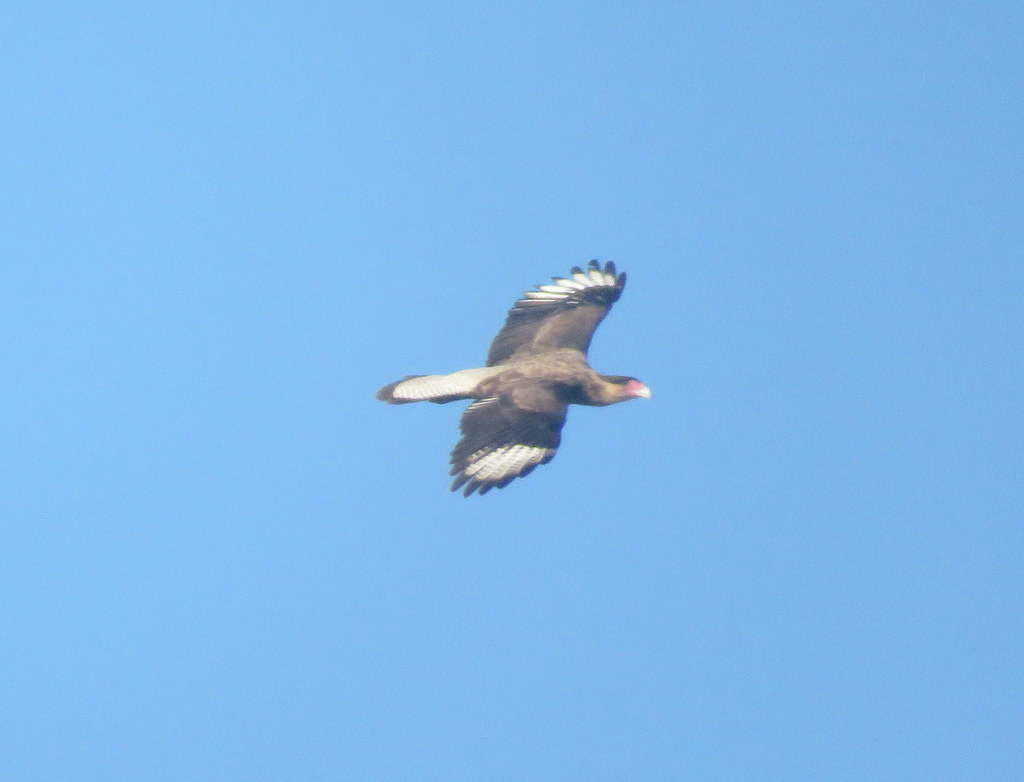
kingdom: Animalia
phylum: Chordata
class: Aves
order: Falconiformes
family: Falconidae
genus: Caracara
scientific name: Caracara plancus
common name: Southern caracara
